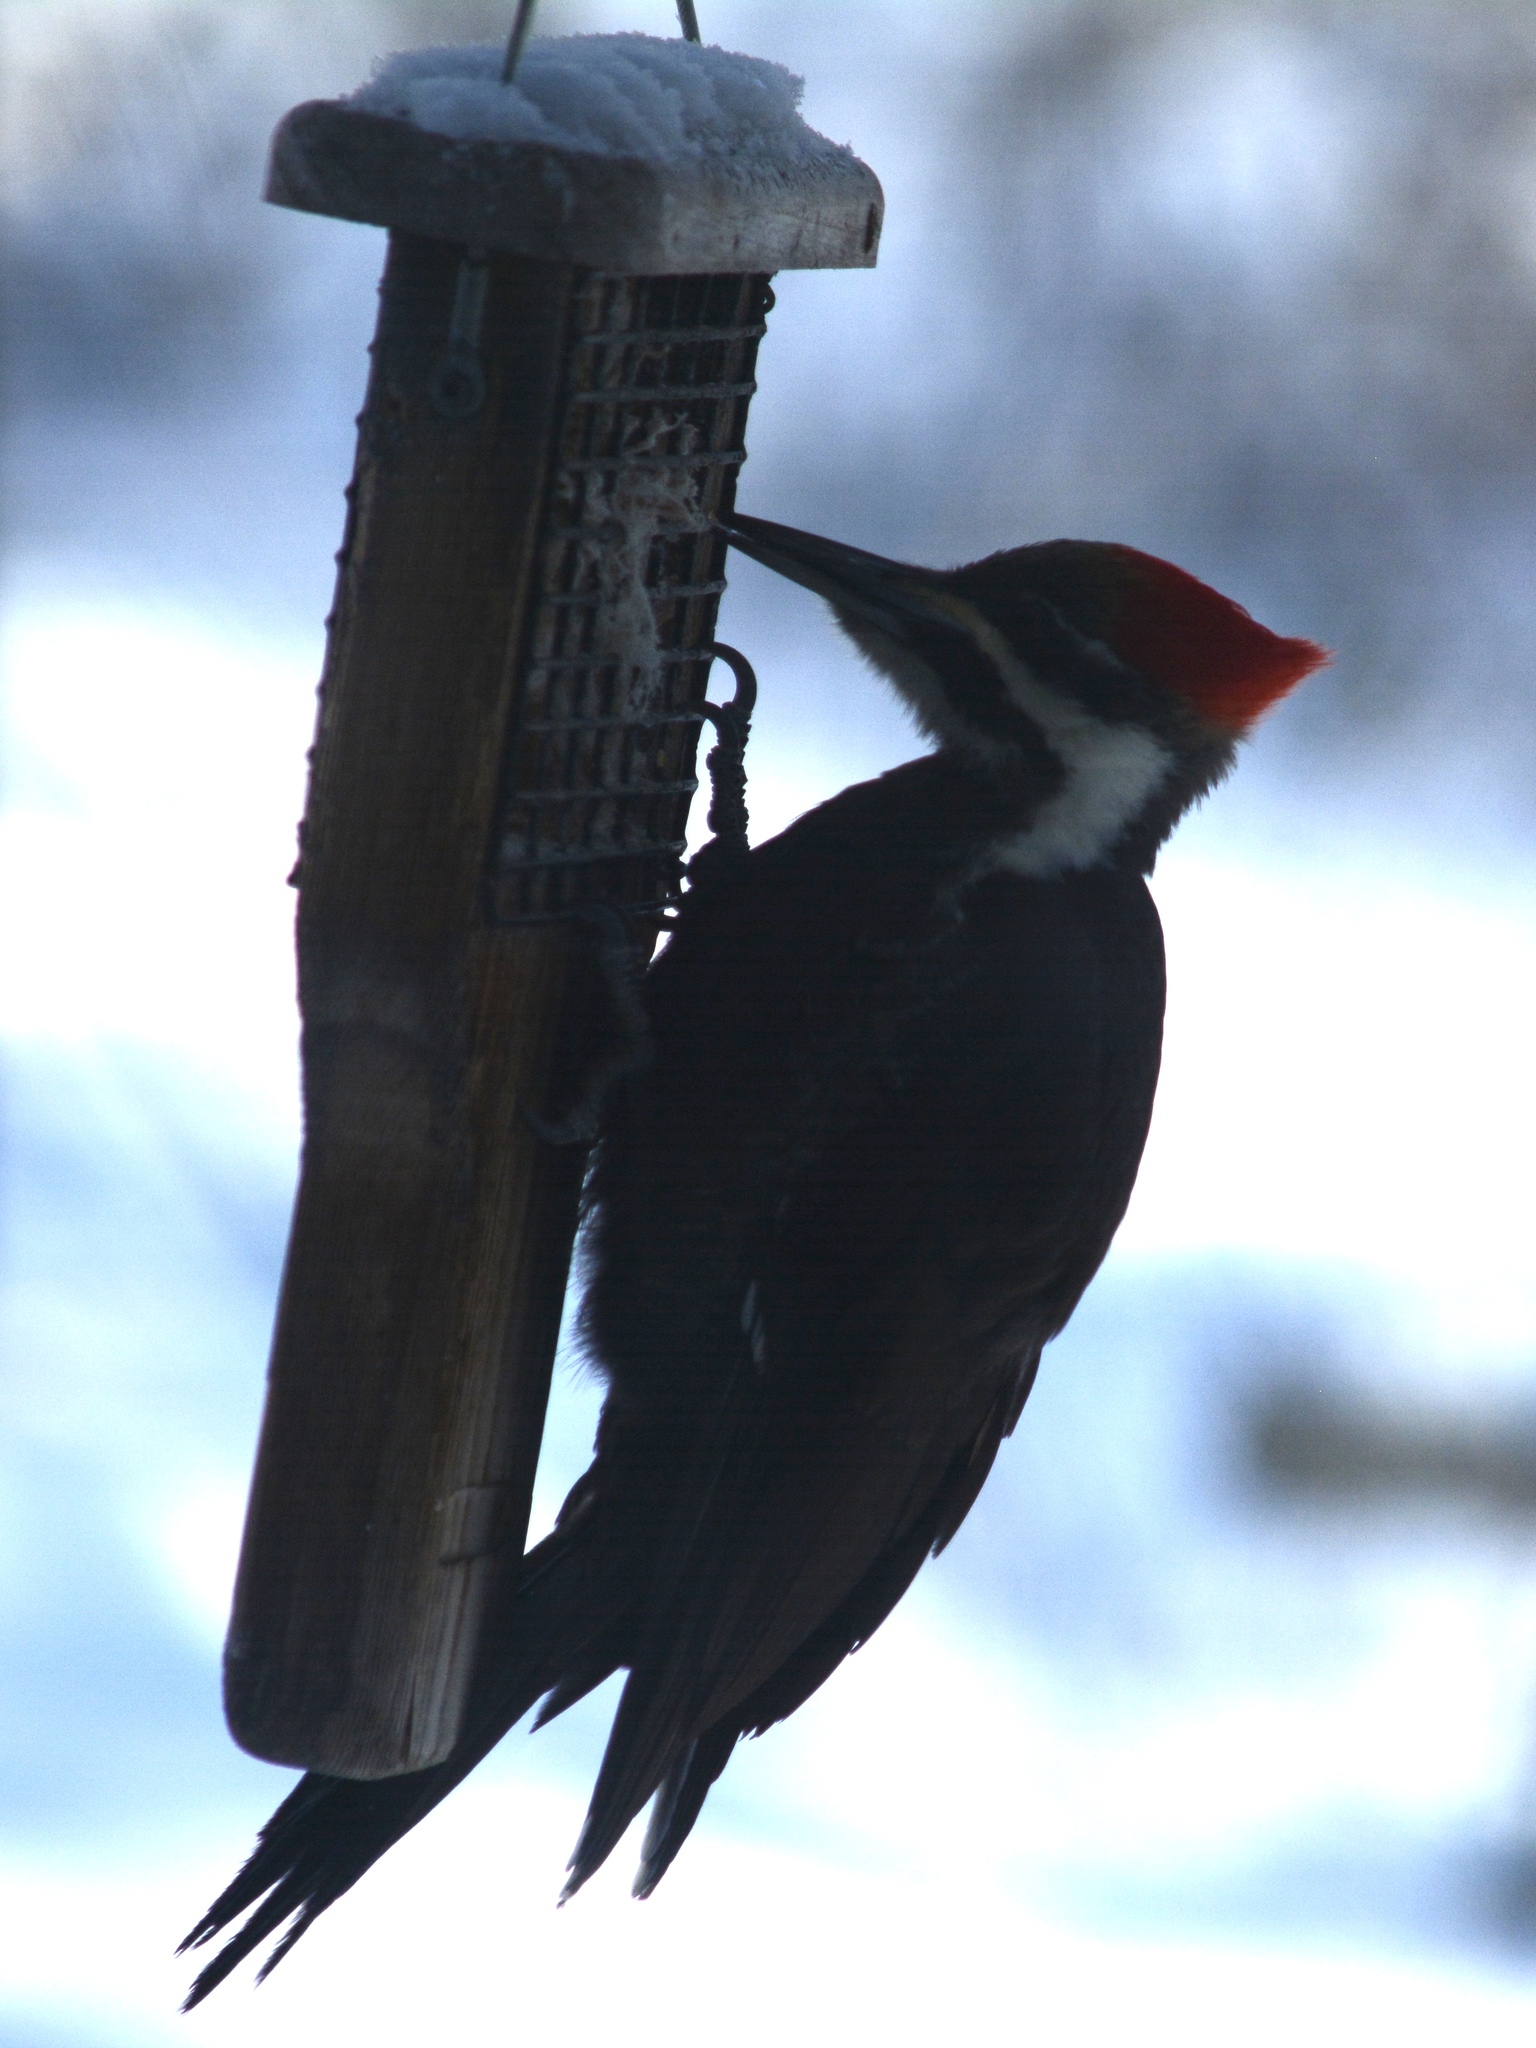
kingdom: Animalia
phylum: Chordata
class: Aves
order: Piciformes
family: Picidae
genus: Dryocopus
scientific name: Dryocopus pileatus
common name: Pileated woodpecker
